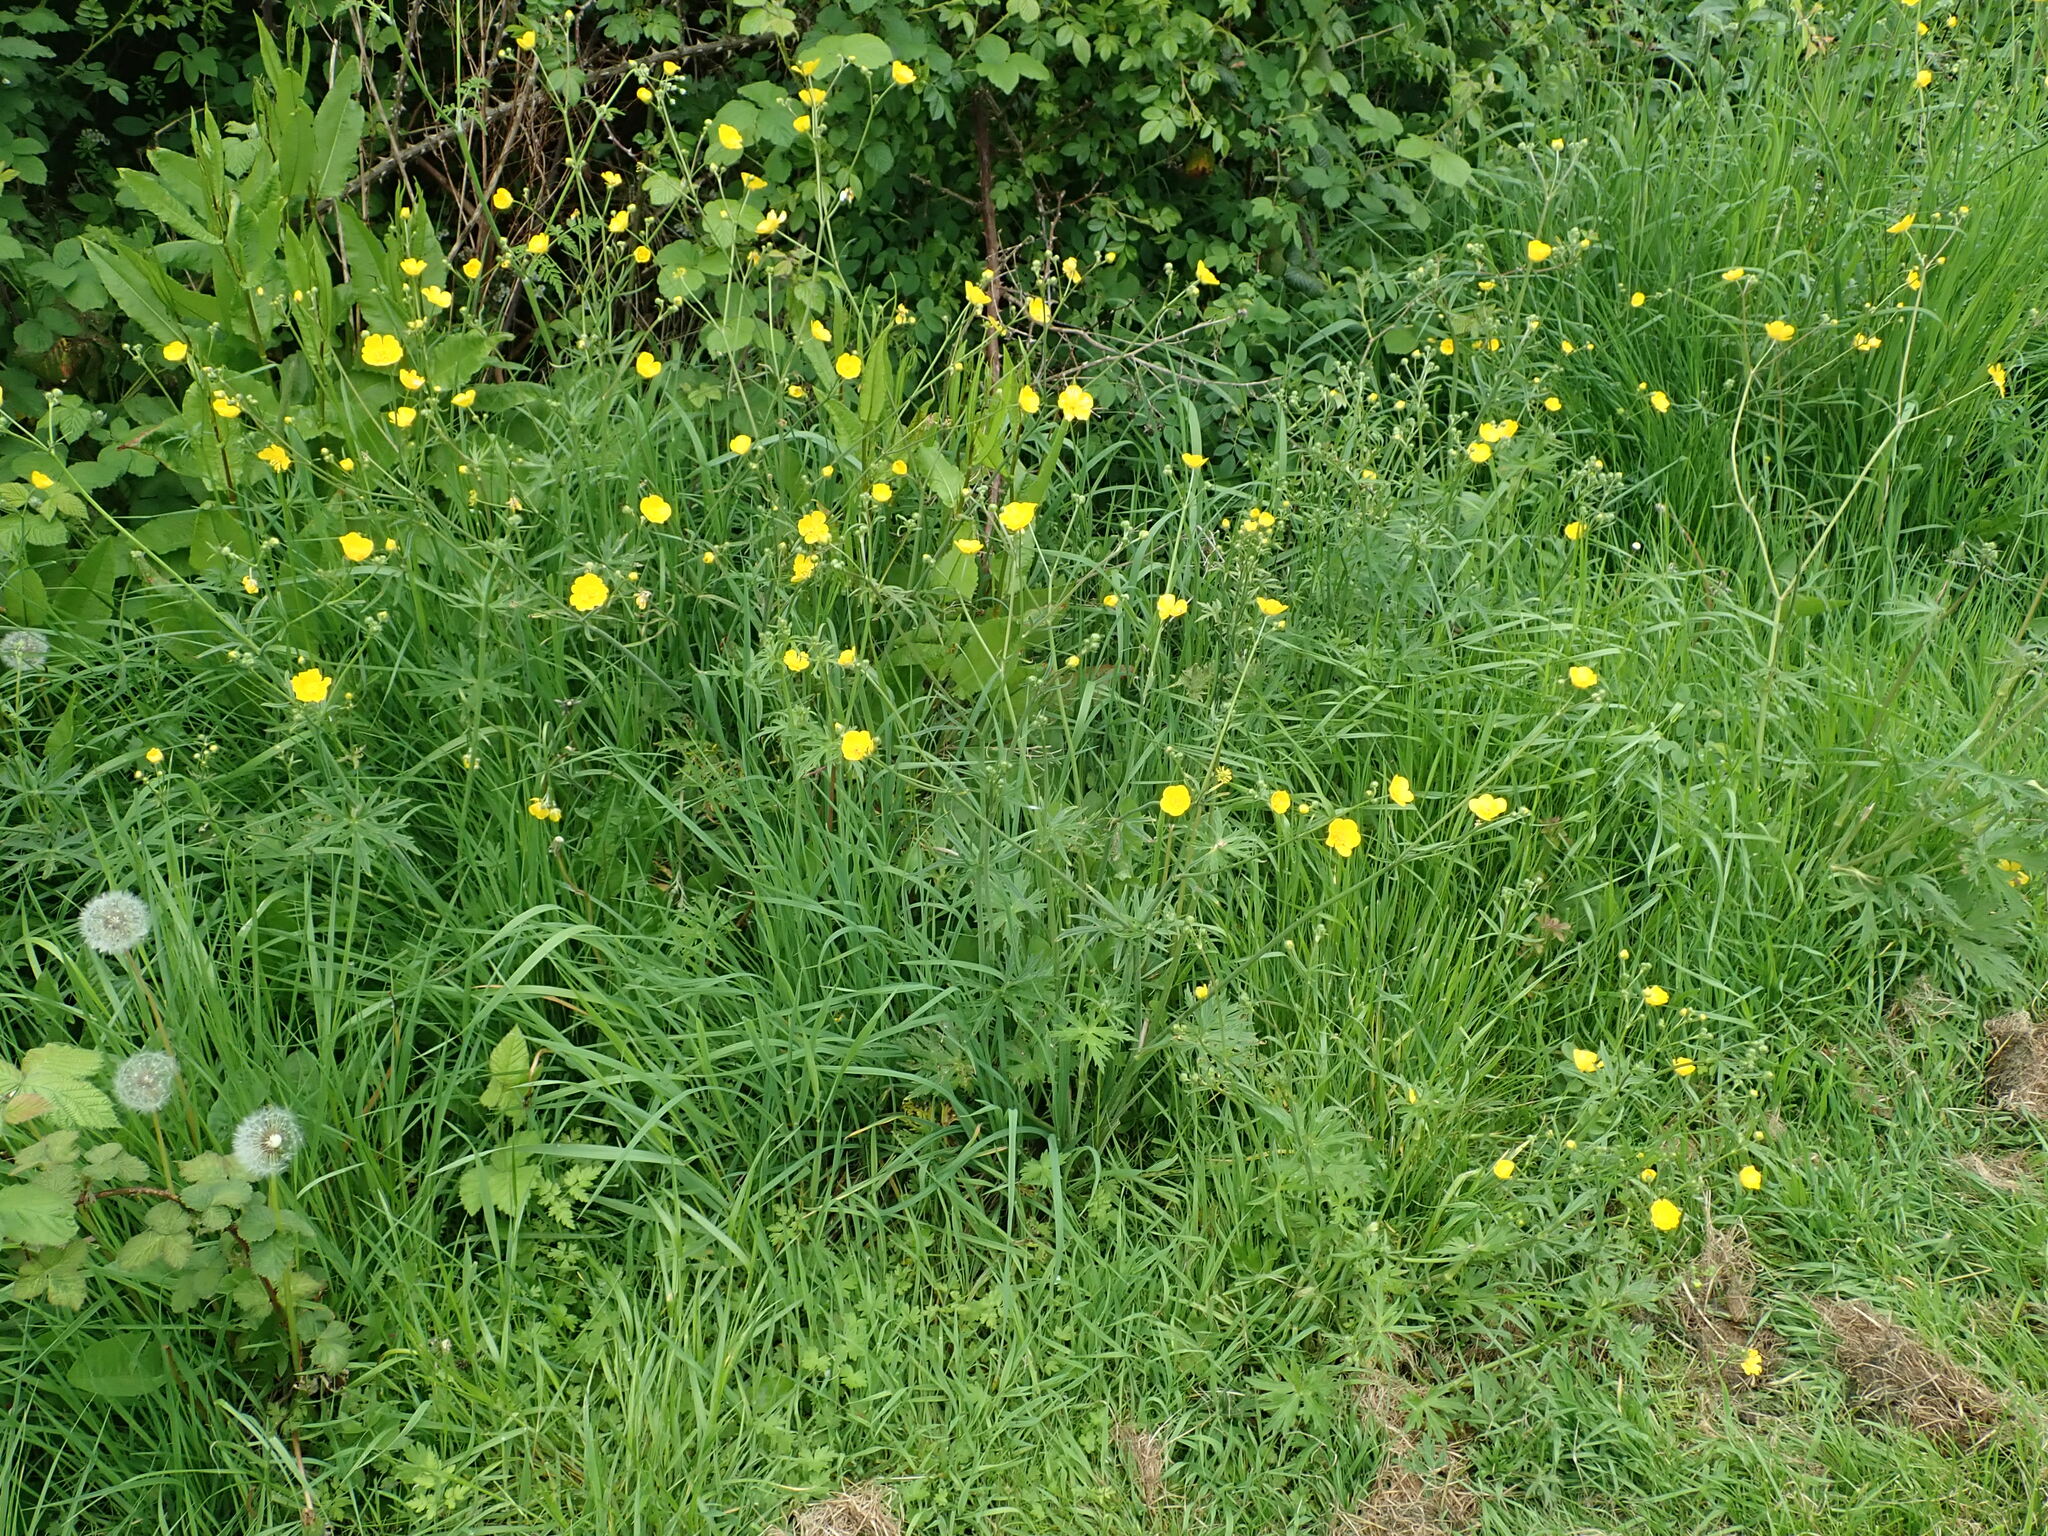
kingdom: Plantae
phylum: Tracheophyta
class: Magnoliopsida
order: Ranunculales
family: Ranunculaceae
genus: Ranunculus
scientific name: Ranunculus acris
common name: Meadow buttercup
